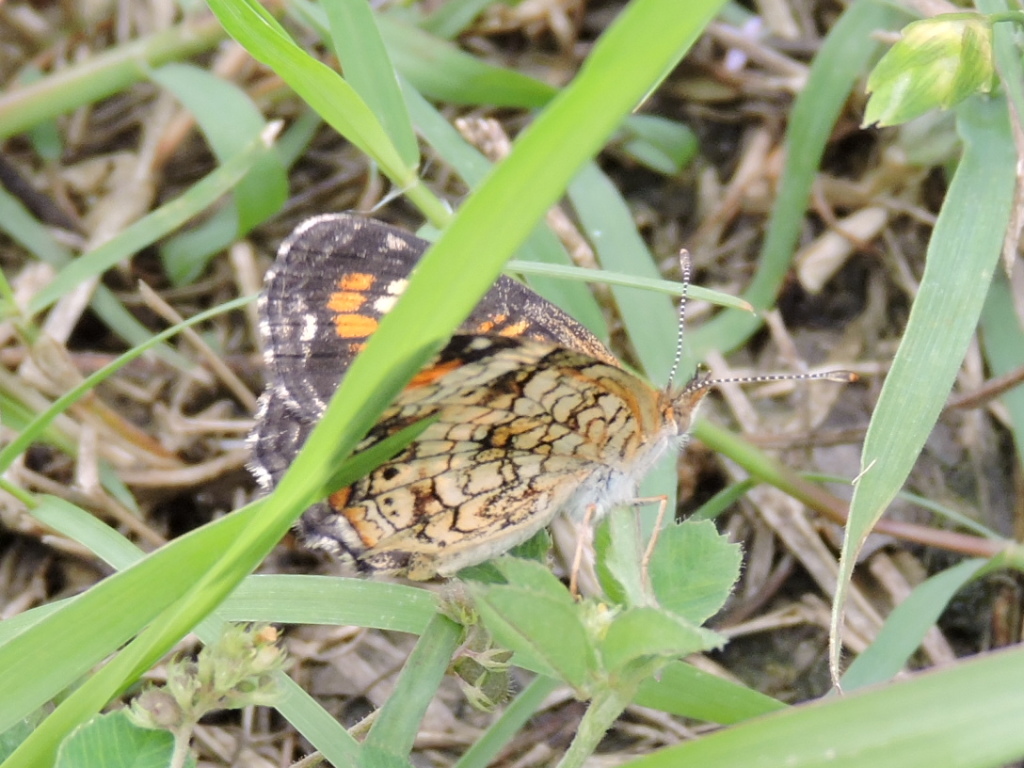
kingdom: Animalia
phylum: Arthropoda
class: Insecta
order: Lepidoptera
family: Nymphalidae
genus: Phyciodes
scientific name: Phyciodes phaon
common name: Phaon crescent
